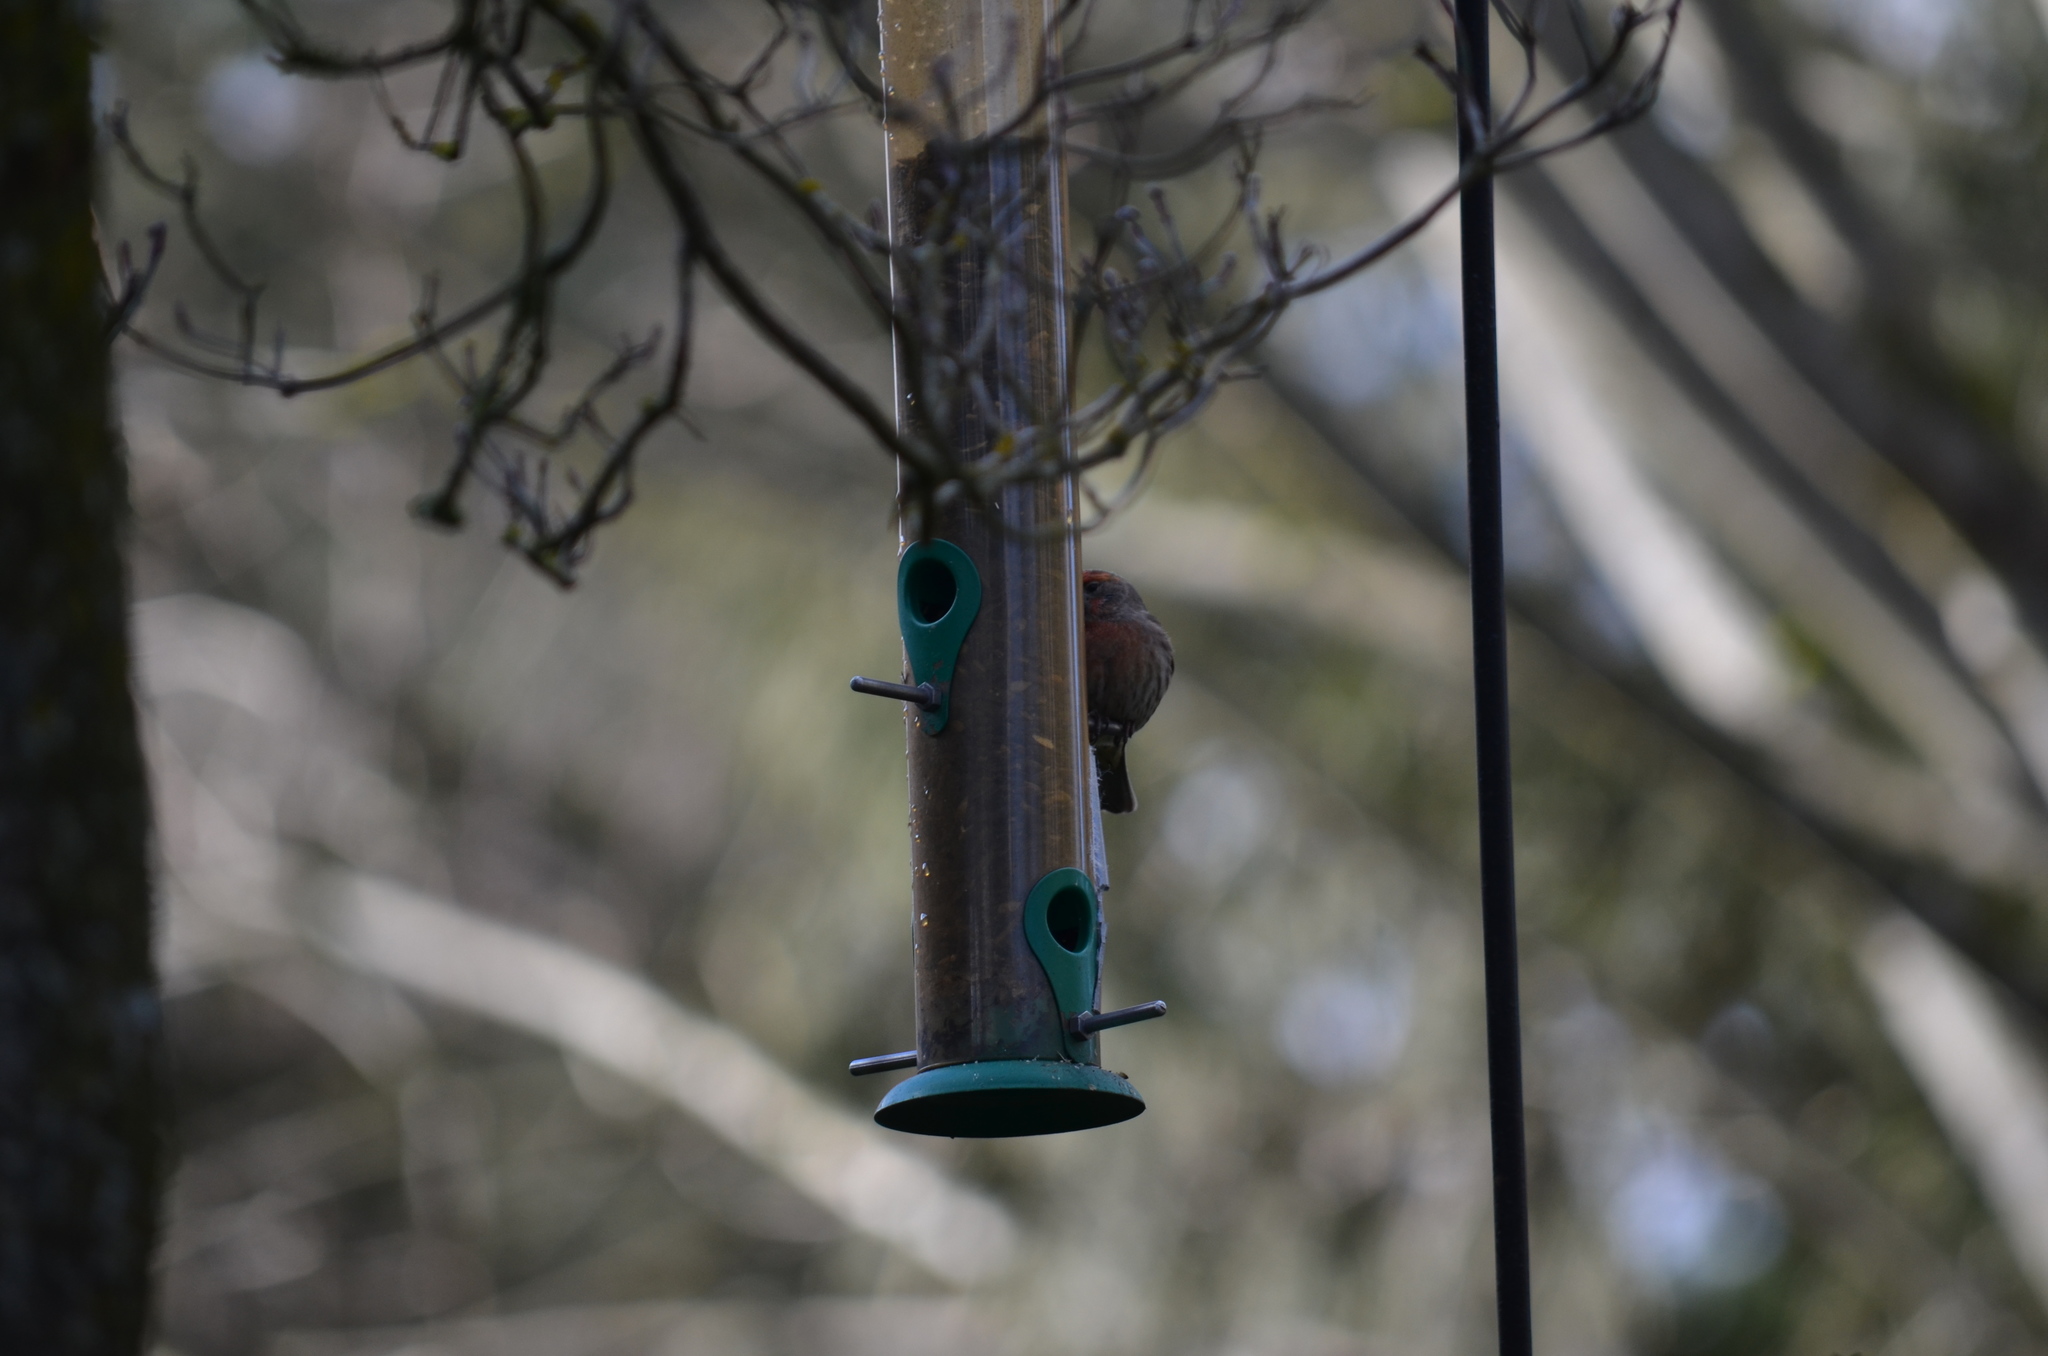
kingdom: Animalia
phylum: Chordata
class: Aves
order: Passeriformes
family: Fringillidae
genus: Haemorhous
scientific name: Haemorhous mexicanus
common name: House finch
